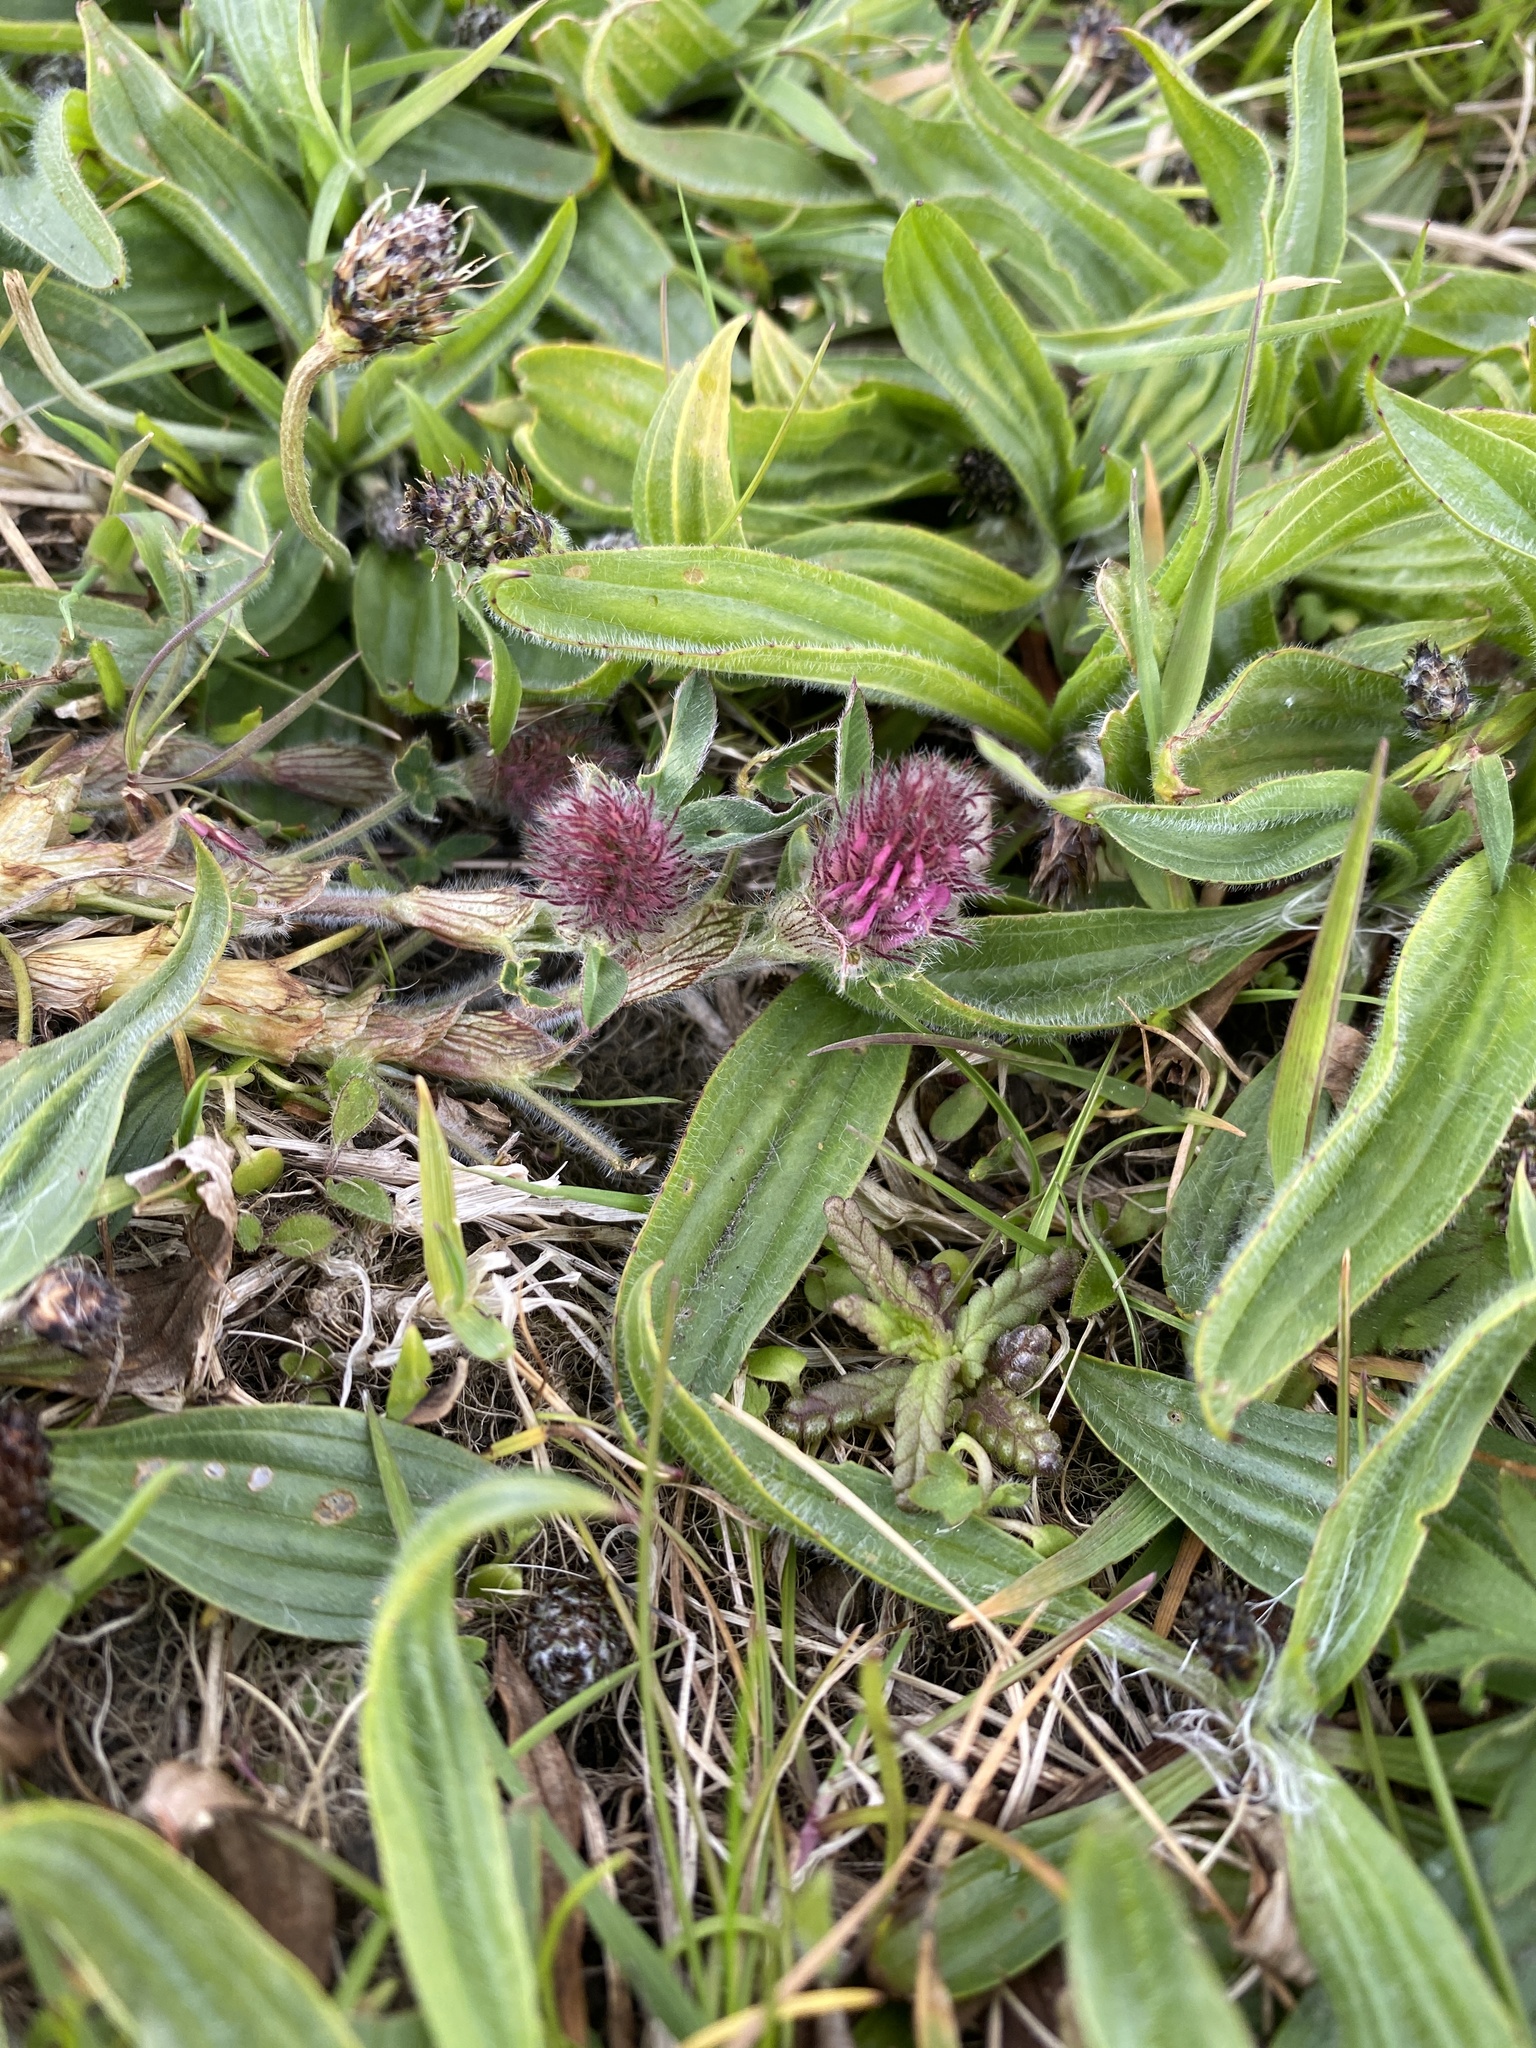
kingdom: Plantae
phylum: Tracheophyta
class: Magnoliopsida
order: Fabales
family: Fabaceae
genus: Trifolium
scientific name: Trifolium pratense
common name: Red clover
